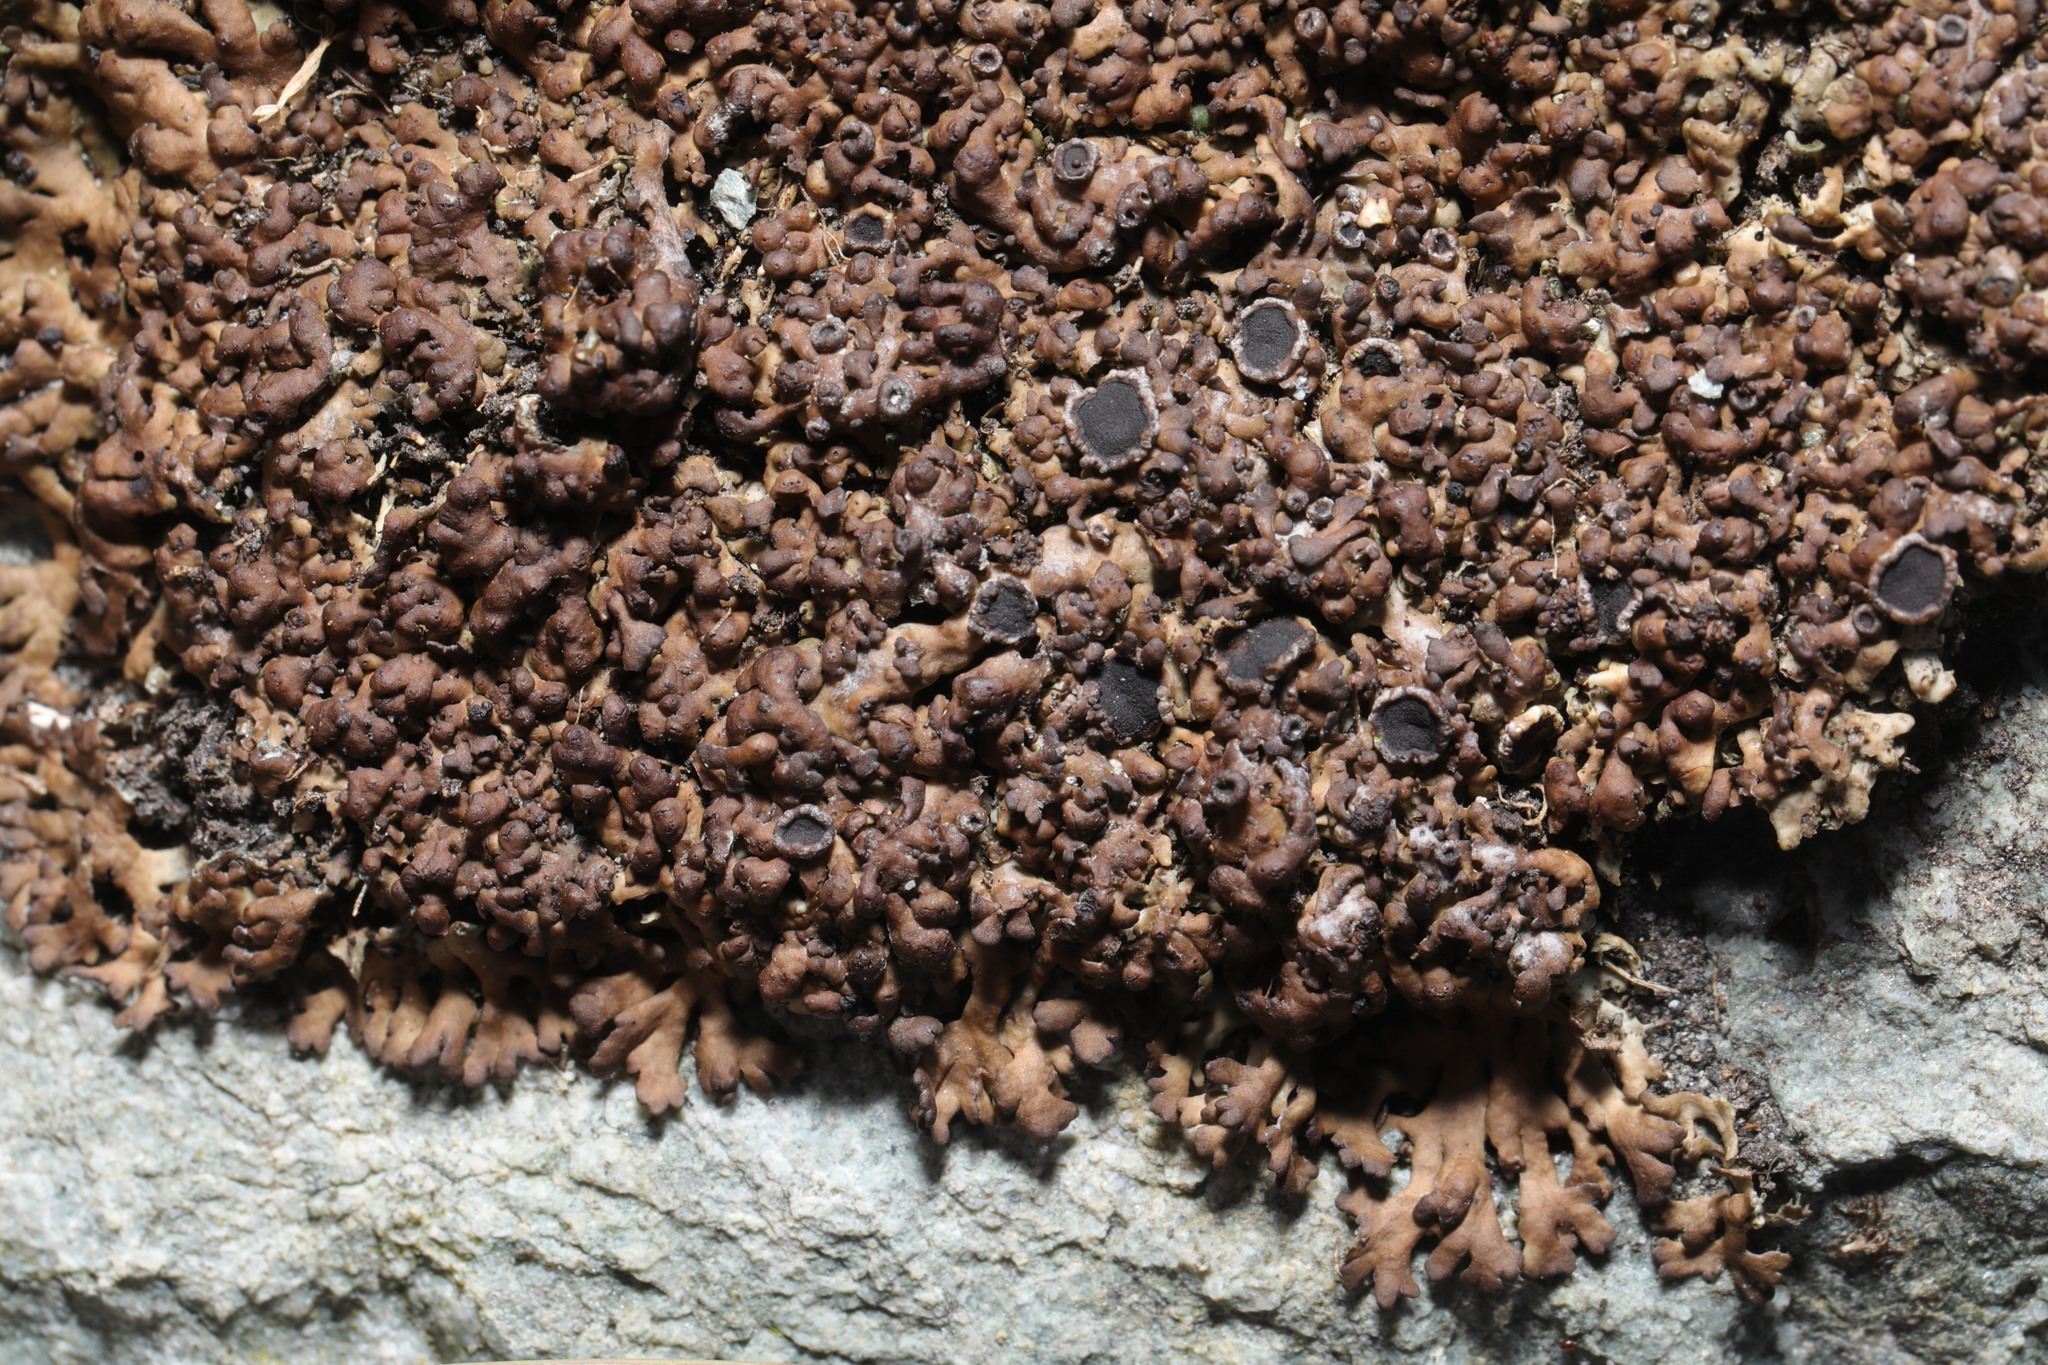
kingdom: Fungi
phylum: Ascomycota
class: Lecanoromycetes
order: Caliciales
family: Physciaceae
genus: Kurokawia
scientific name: Kurokawia runcinata
